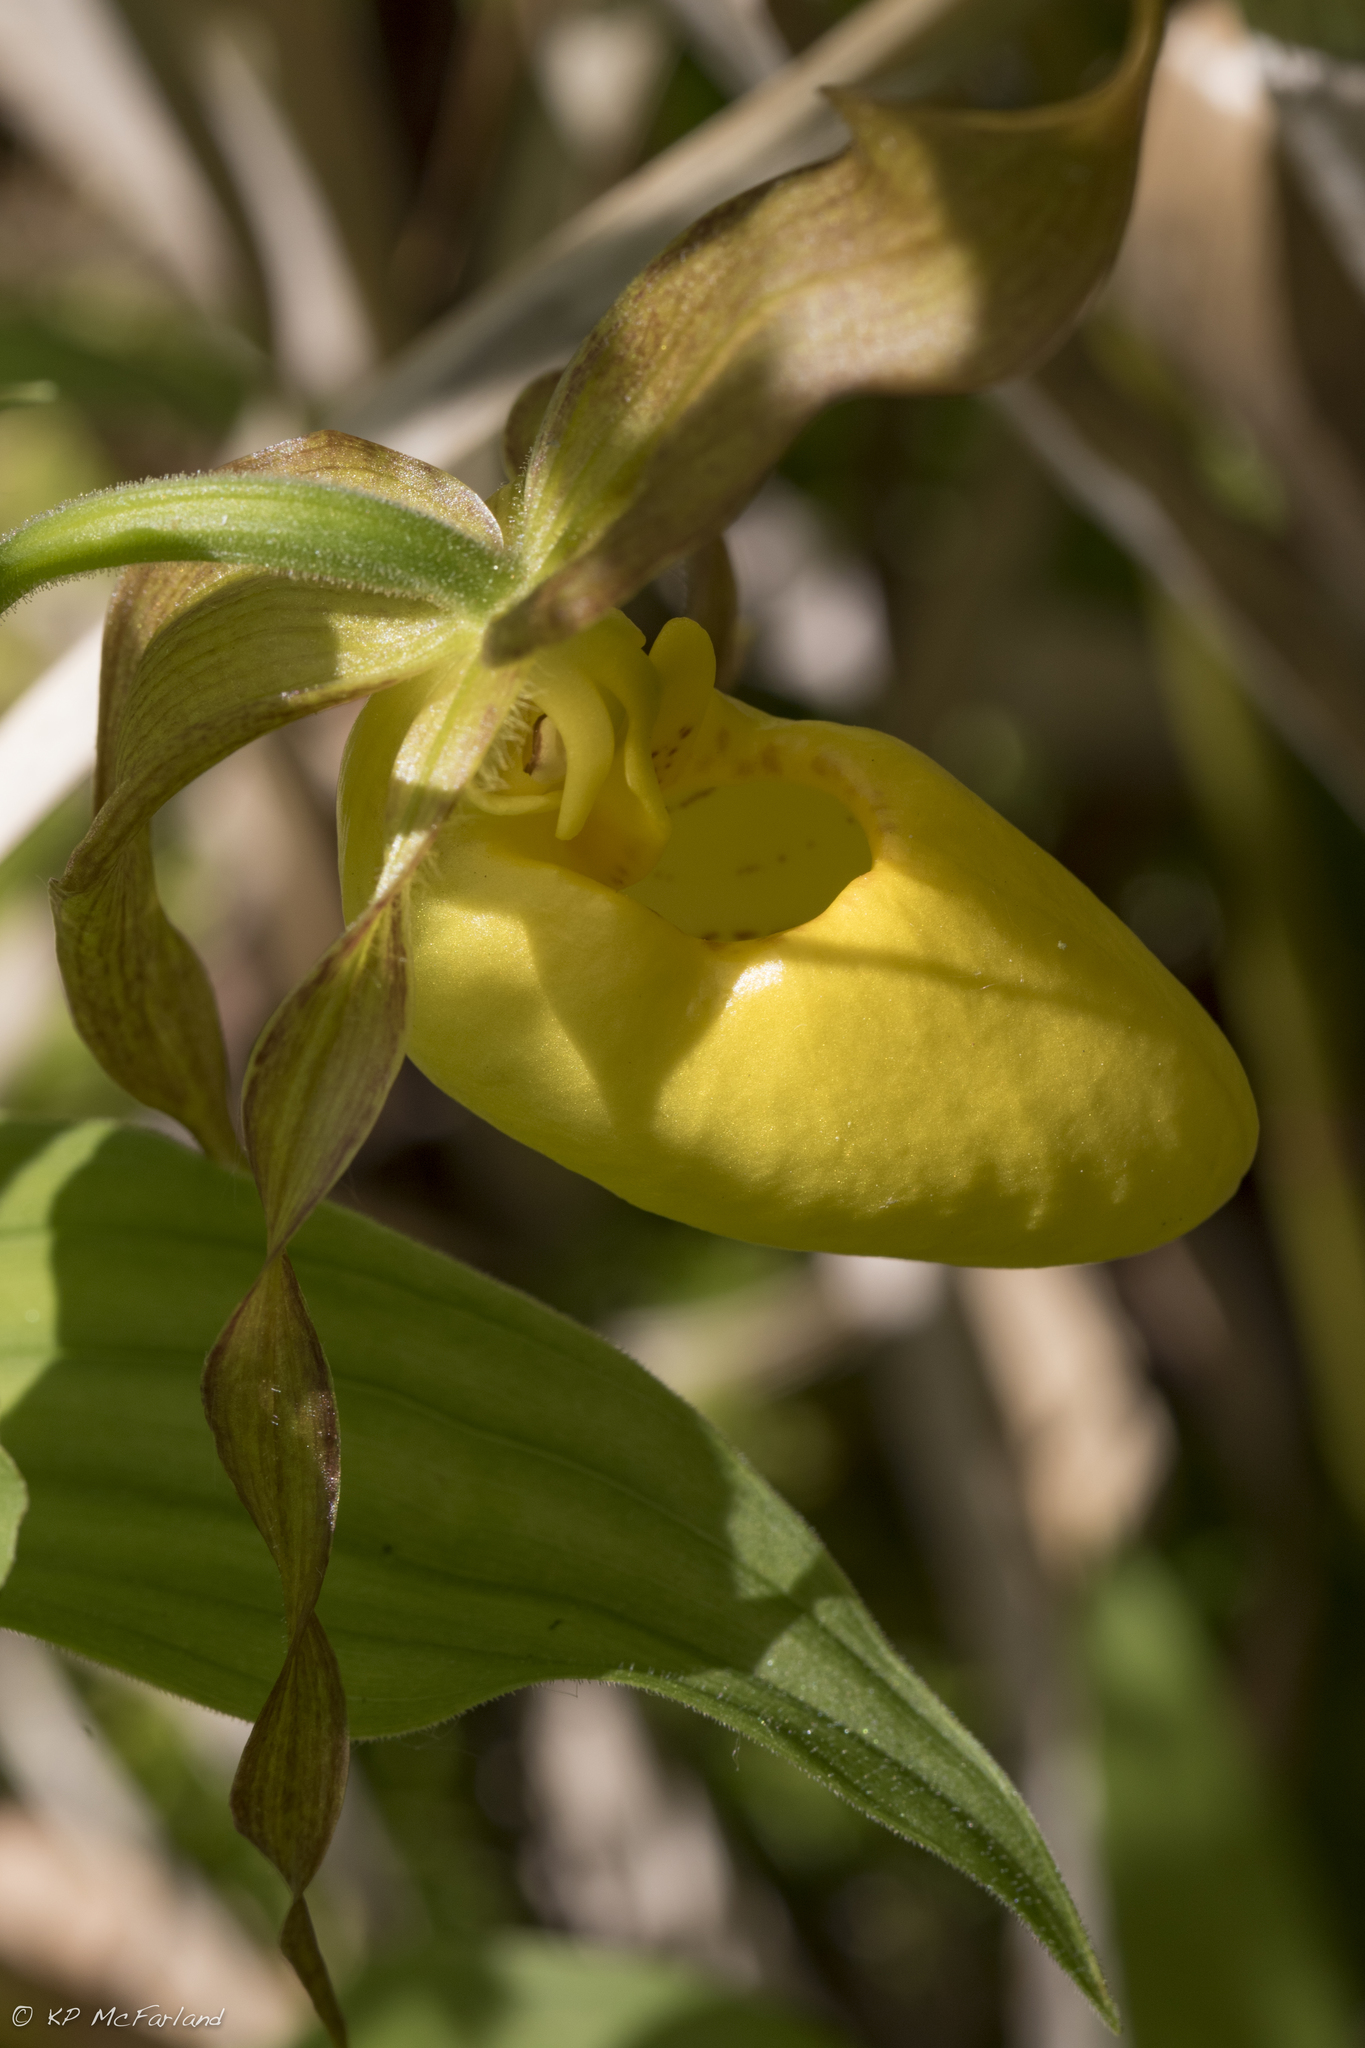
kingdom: Plantae
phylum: Tracheophyta
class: Liliopsida
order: Asparagales
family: Orchidaceae
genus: Cypripedium
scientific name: Cypripedium parviflorum
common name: American yellow lady's-slipper
